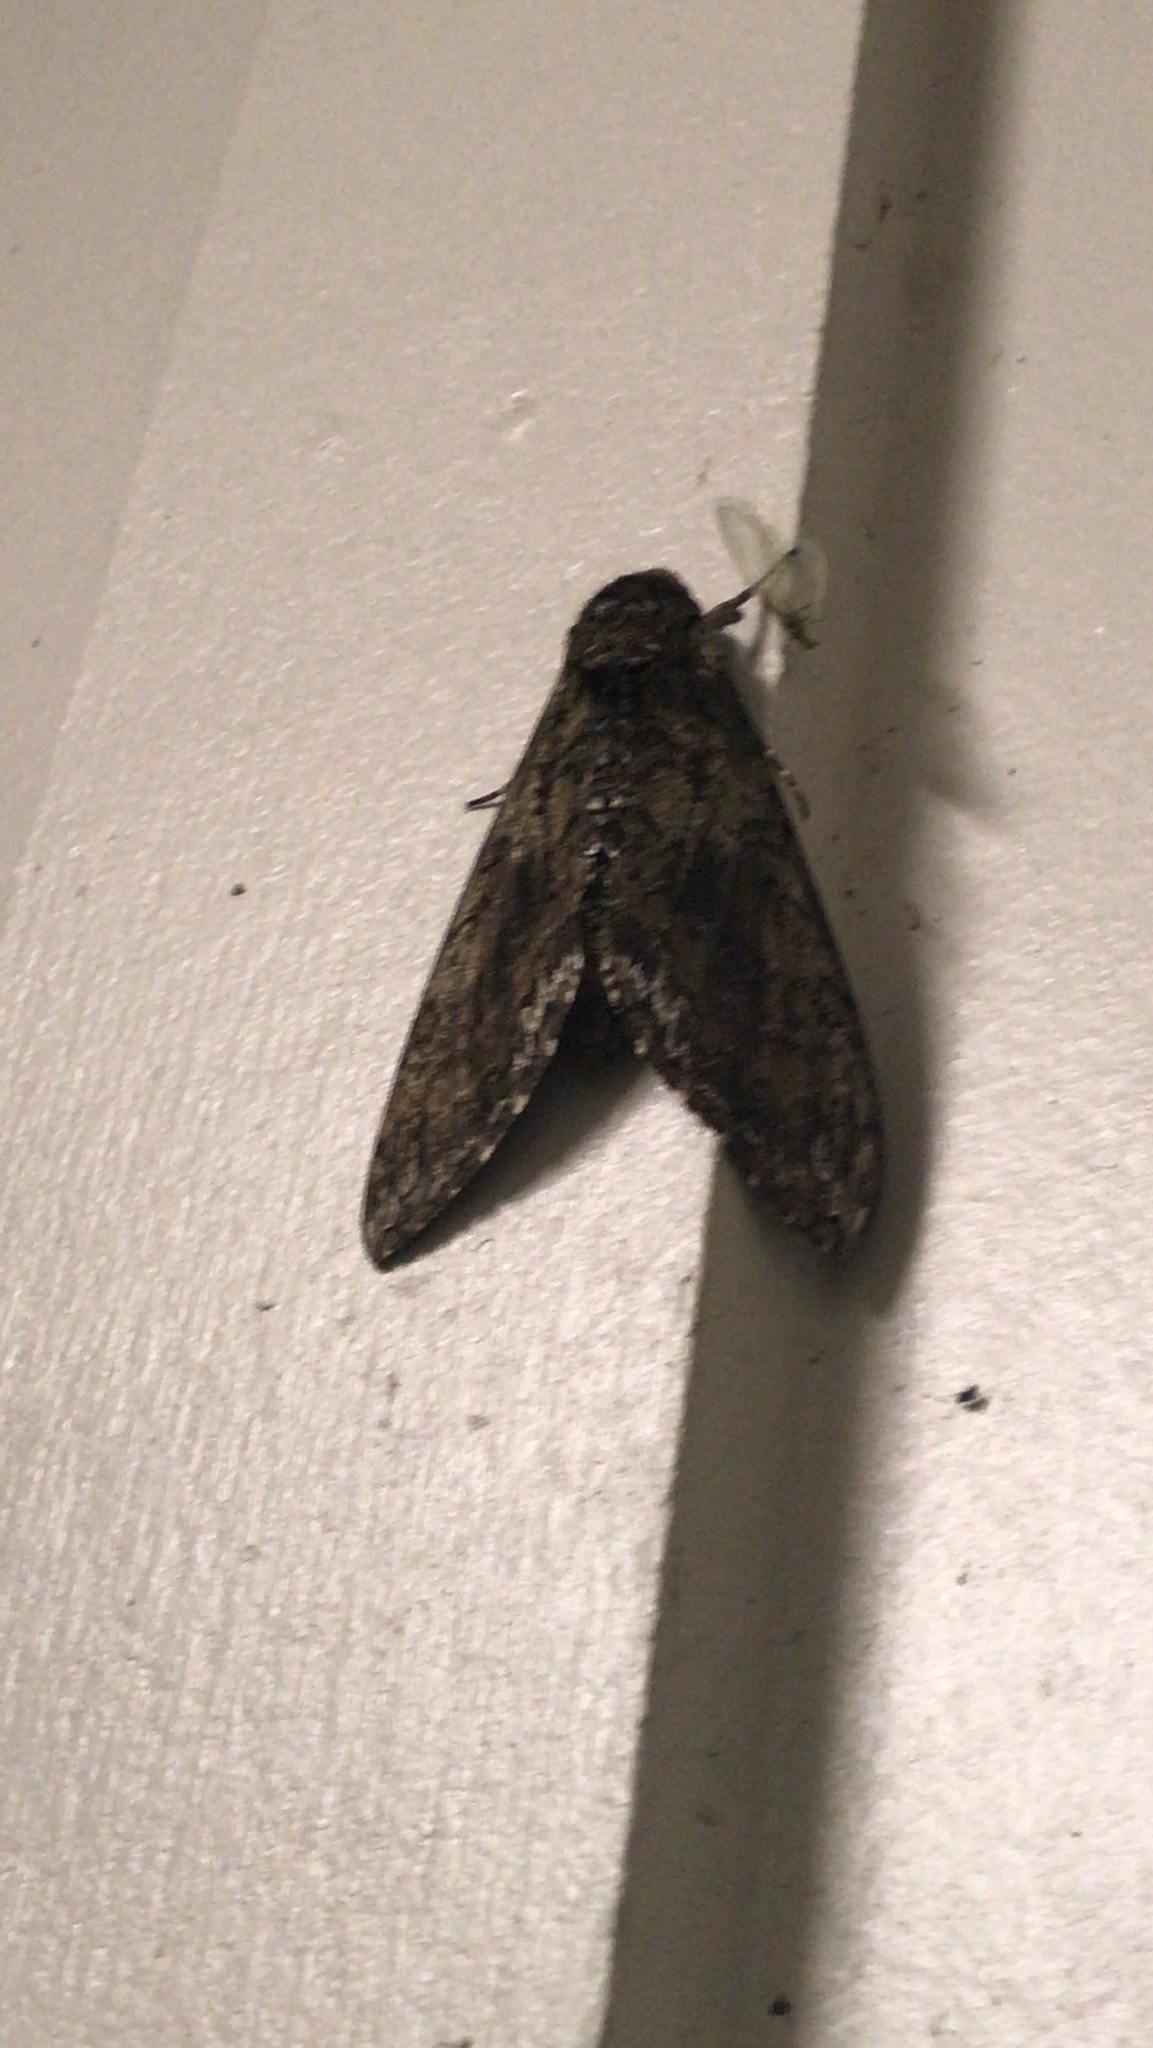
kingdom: Animalia
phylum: Arthropoda
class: Insecta
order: Lepidoptera
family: Sphingidae
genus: Manduca
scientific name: Manduca sexta
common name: Carolina sphinx
